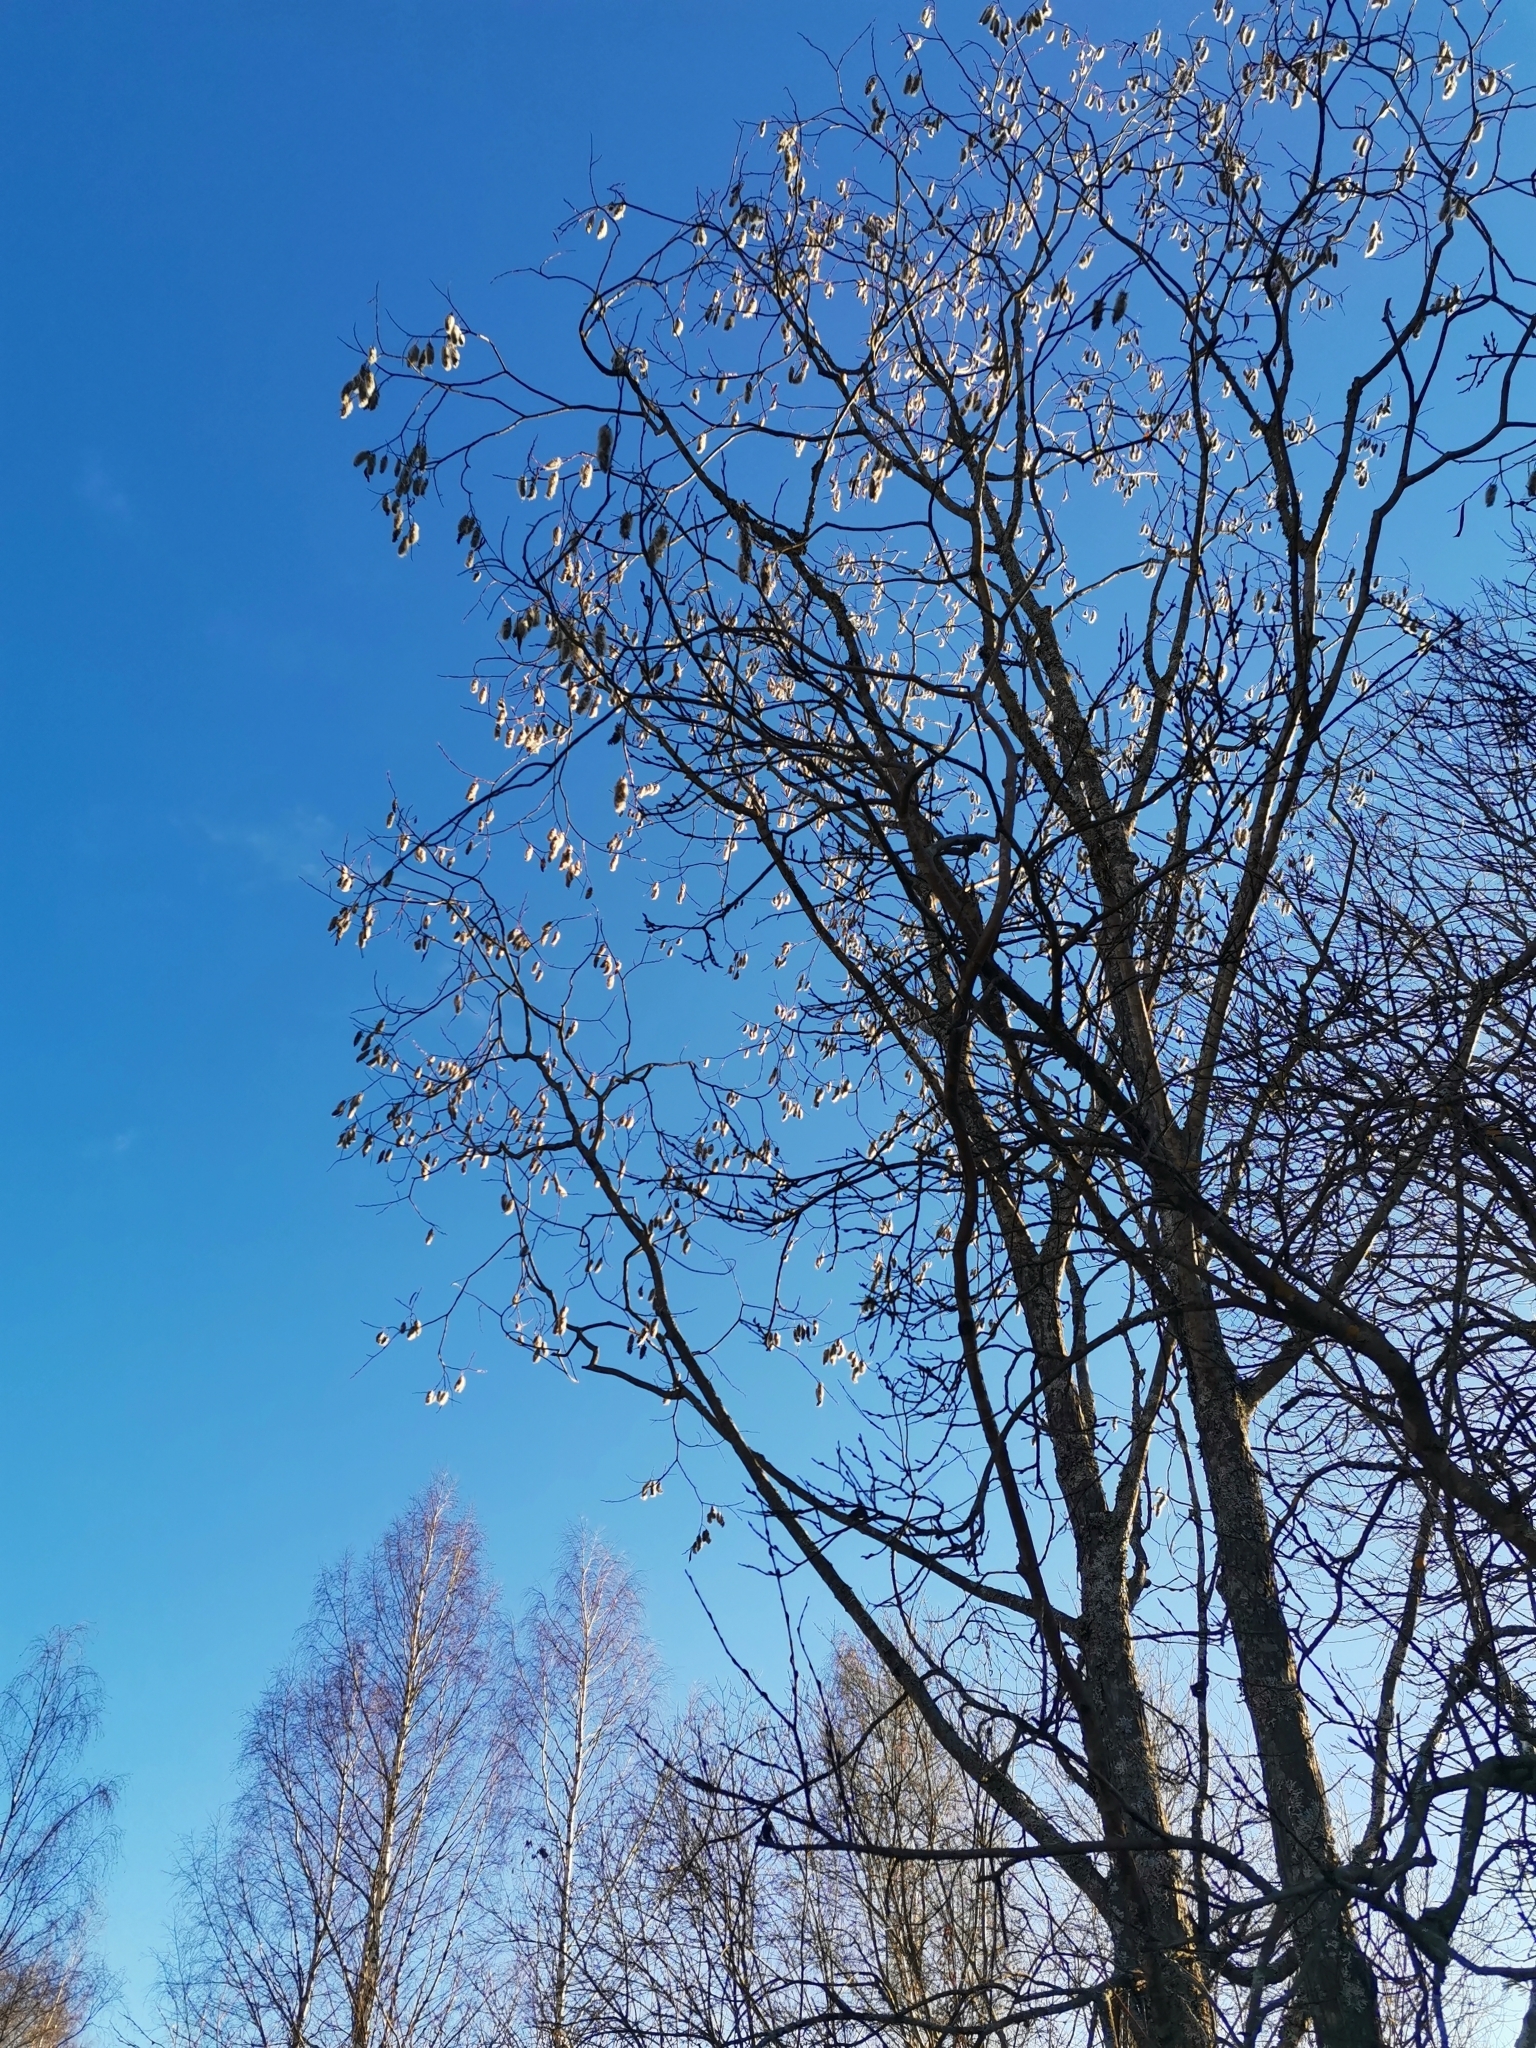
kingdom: Plantae
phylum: Tracheophyta
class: Magnoliopsida
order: Malpighiales
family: Salicaceae
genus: Salix
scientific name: Salix pentandra
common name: Bay willow
